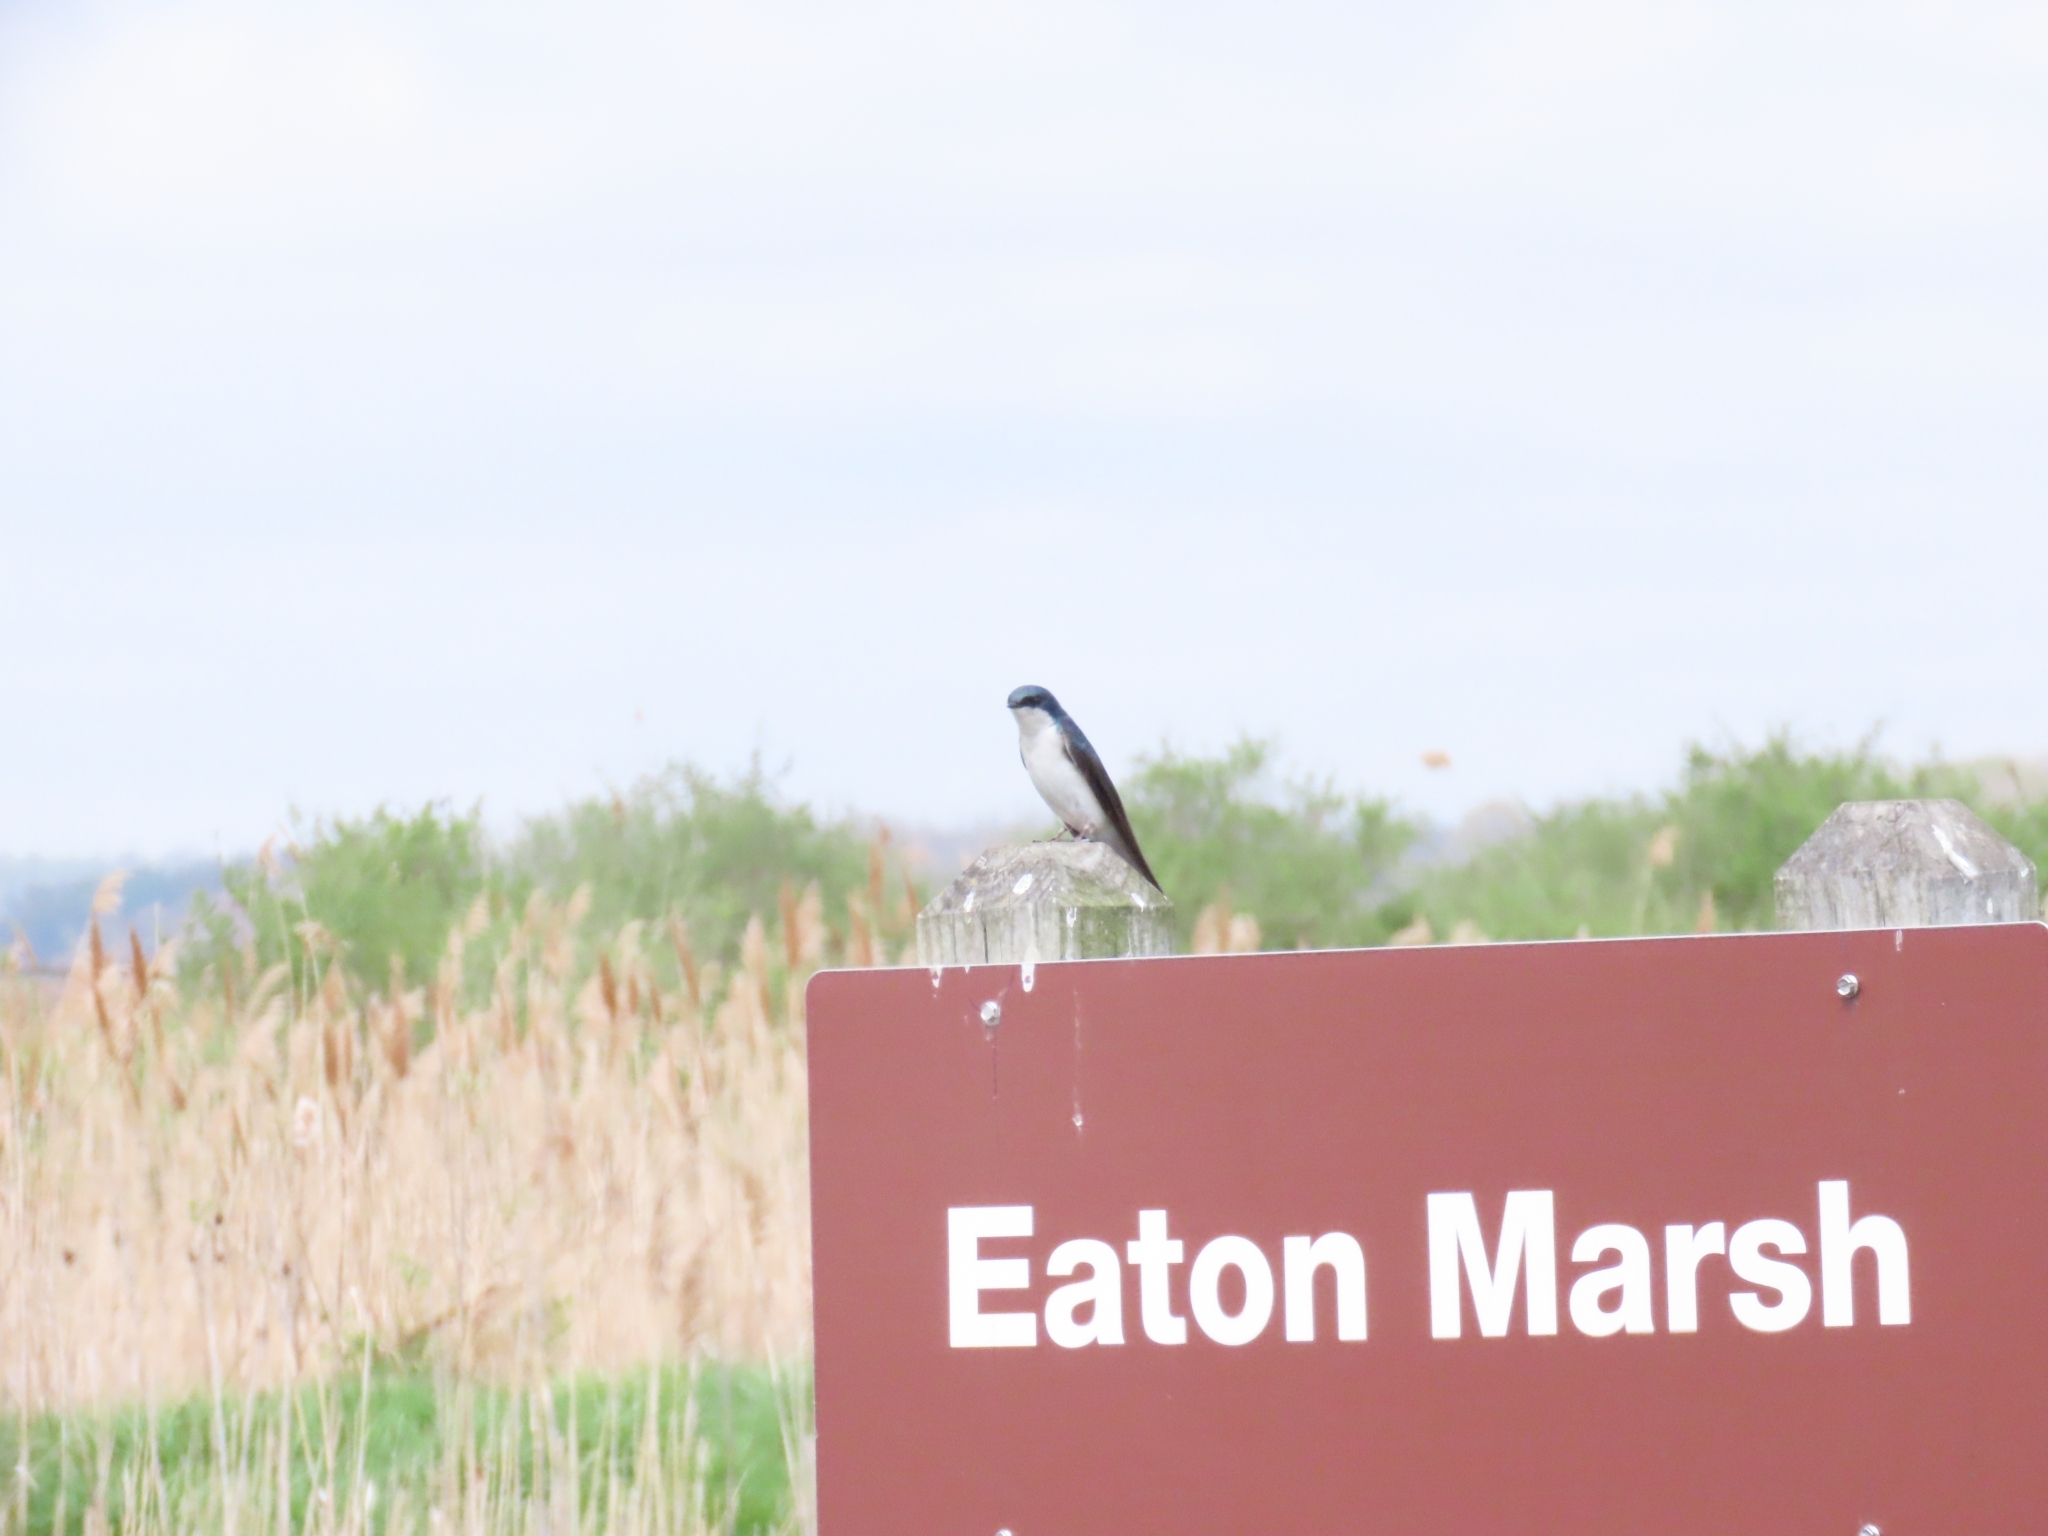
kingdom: Animalia
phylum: Chordata
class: Aves
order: Passeriformes
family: Hirundinidae
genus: Tachycineta
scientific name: Tachycineta bicolor
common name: Tree swallow
